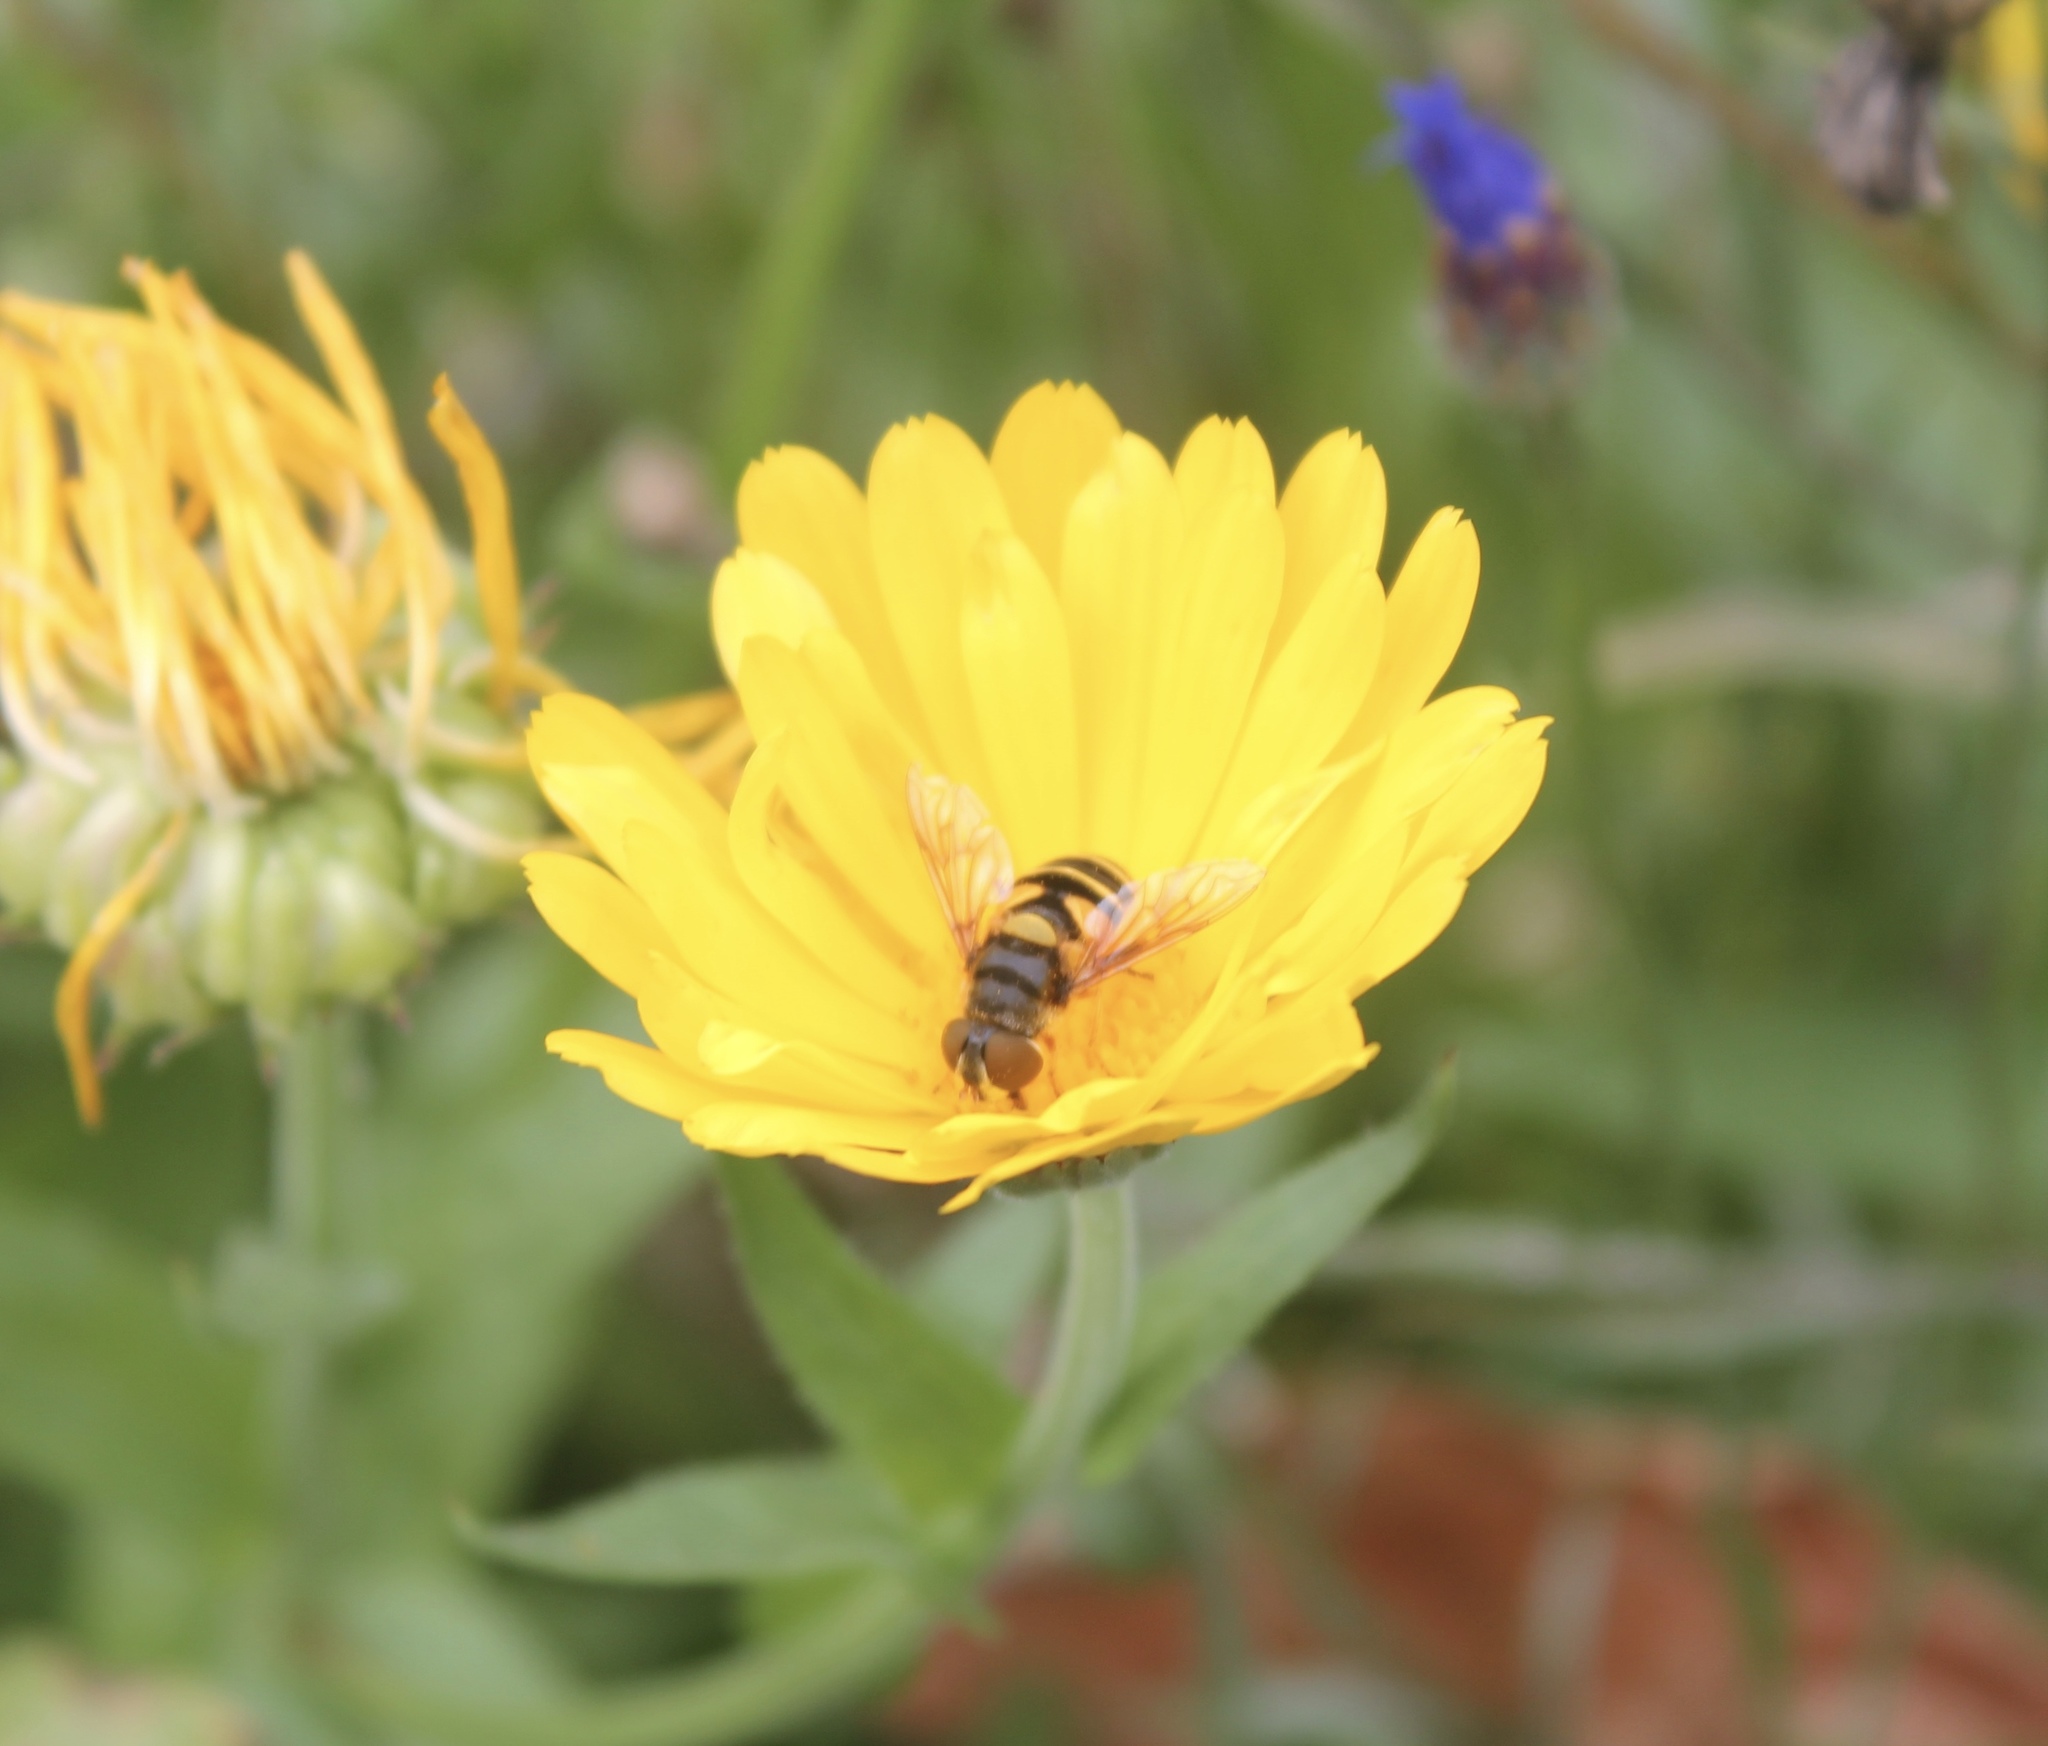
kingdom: Animalia
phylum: Arthropoda
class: Insecta
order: Diptera
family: Syrphidae
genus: Eristalis
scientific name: Eristalis tenax
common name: Drone fly
